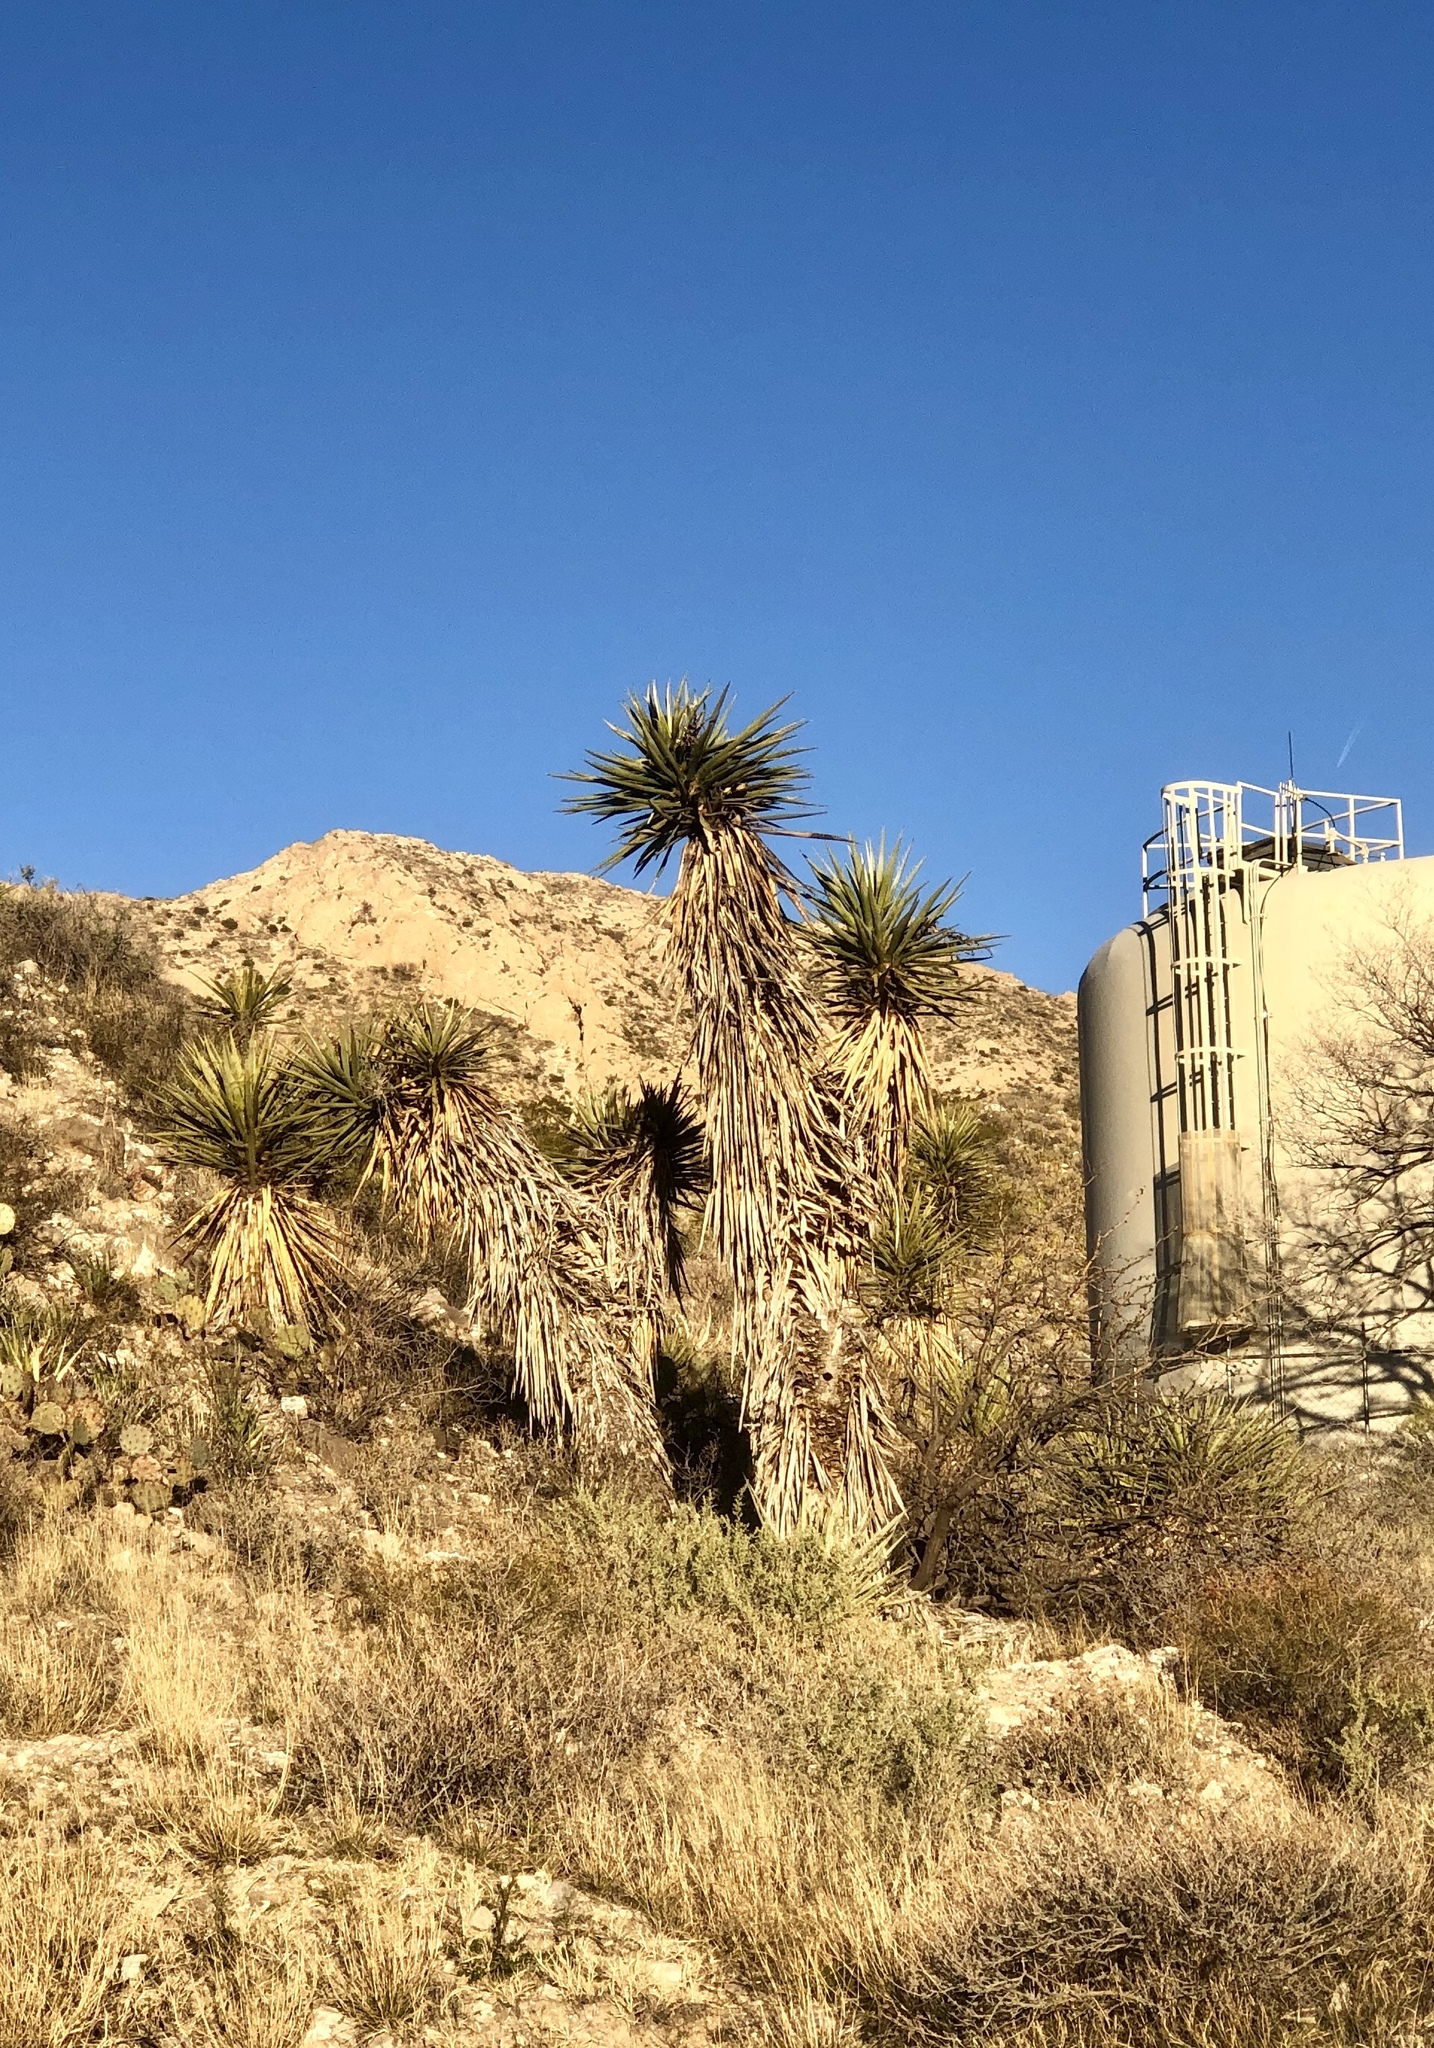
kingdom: Plantae
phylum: Tracheophyta
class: Liliopsida
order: Asparagales
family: Asparagaceae
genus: Yucca
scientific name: Yucca treculiana
